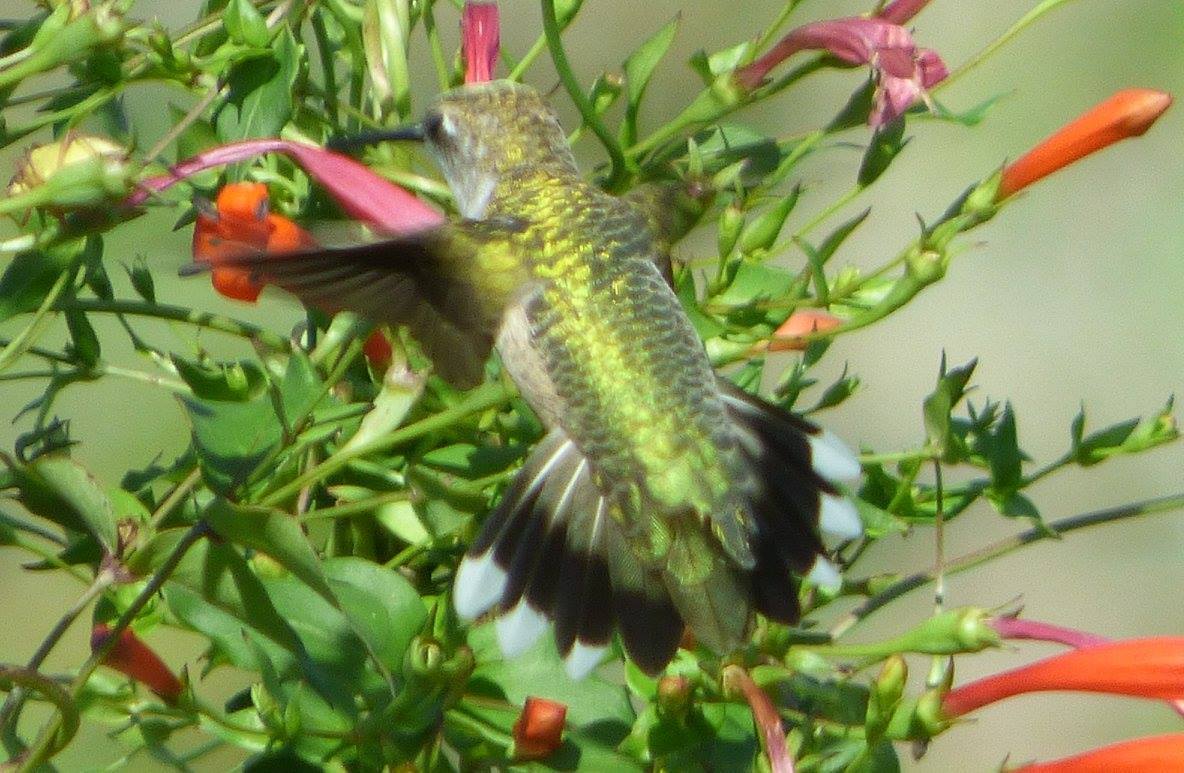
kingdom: Animalia
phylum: Chordata
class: Aves
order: Apodiformes
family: Trochilidae
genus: Archilochus
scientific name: Archilochus colubris
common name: Ruby-throated hummingbird
